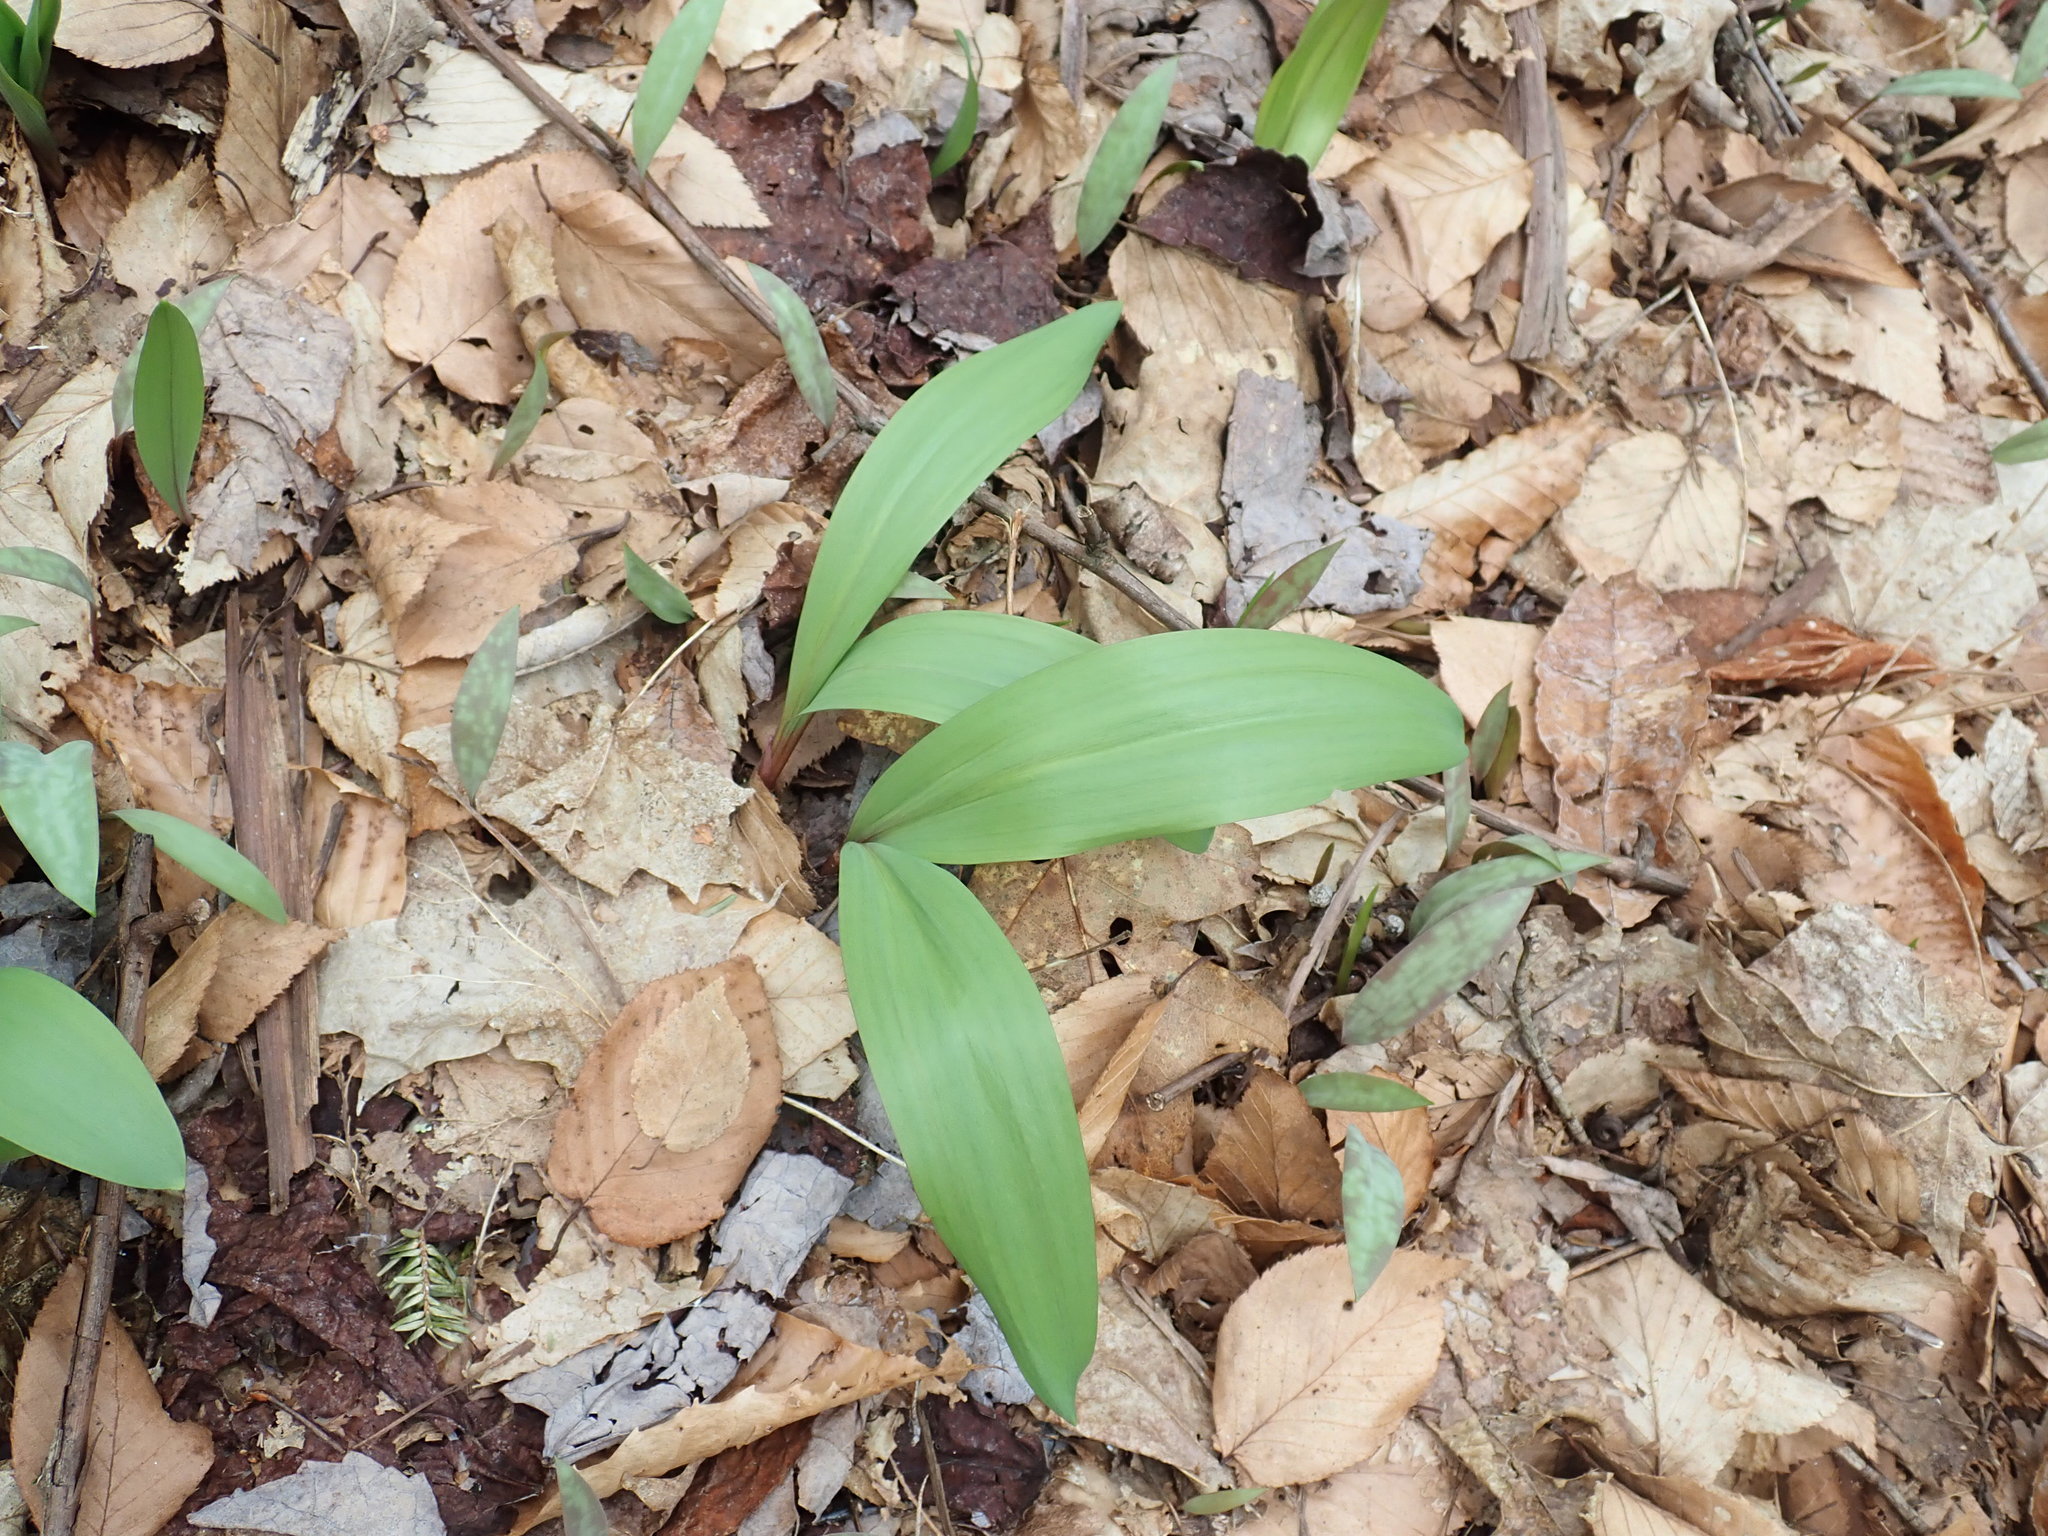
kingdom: Plantae
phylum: Tracheophyta
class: Liliopsida
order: Asparagales
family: Amaryllidaceae
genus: Allium
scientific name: Allium tricoccum
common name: Ramp
